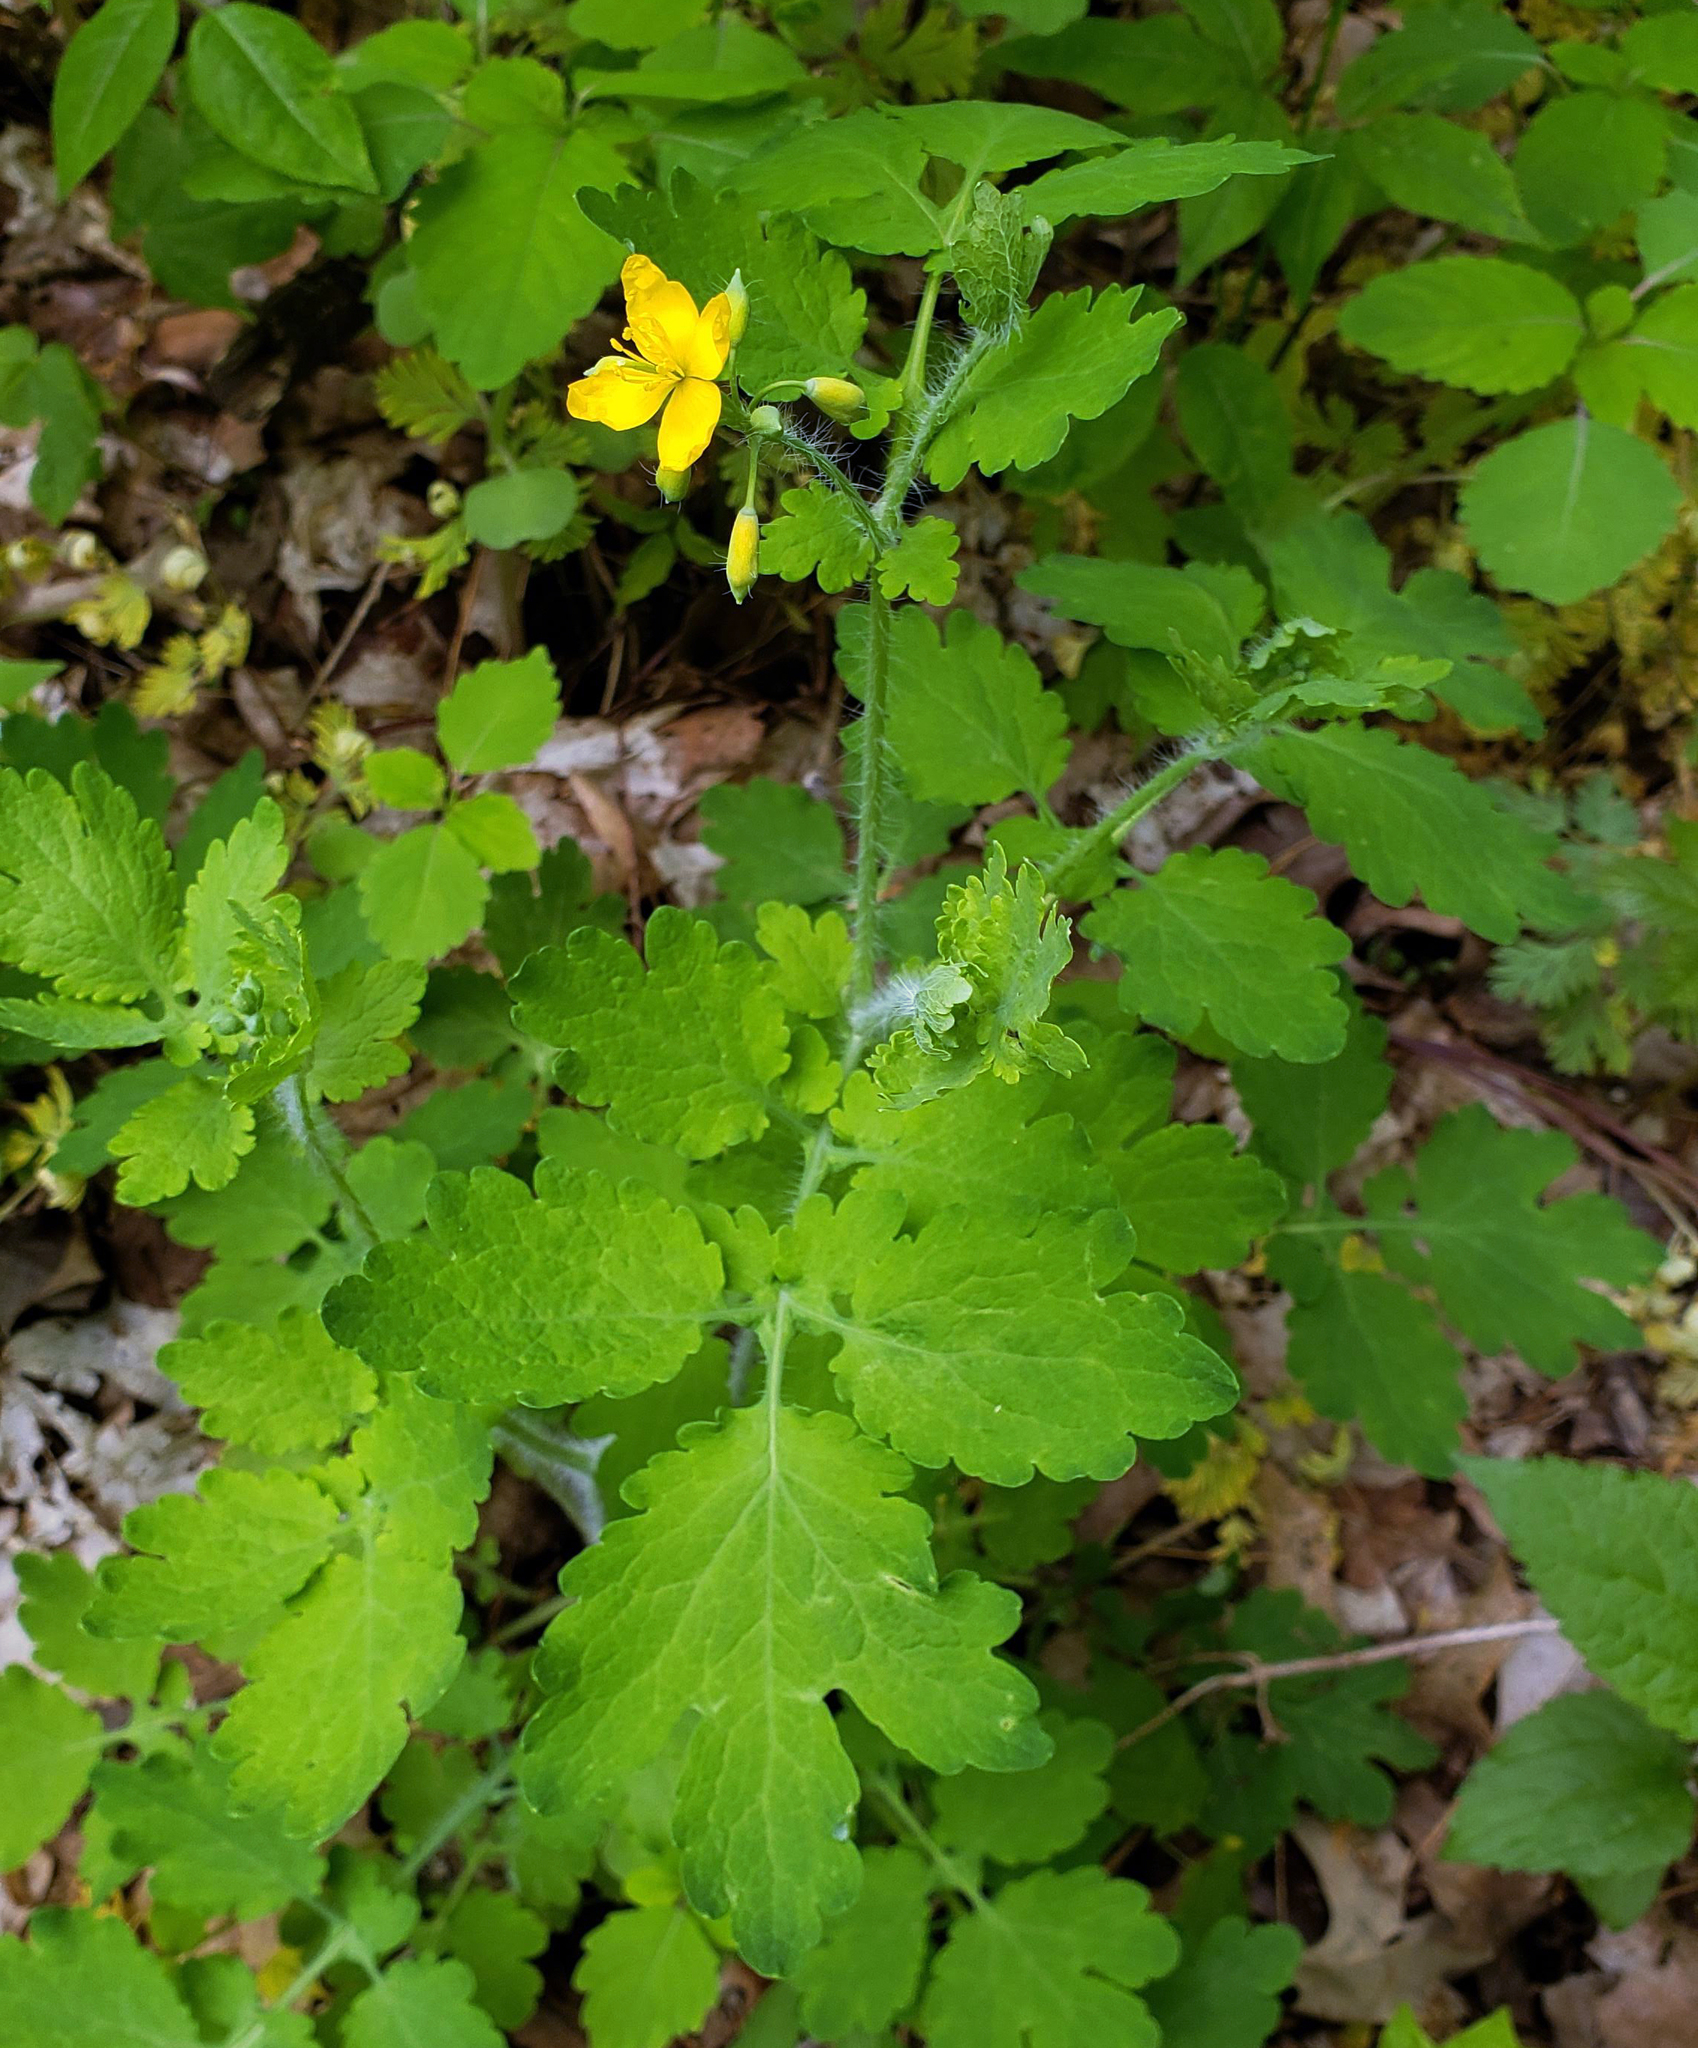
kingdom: Plantae
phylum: Tracheophyta
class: Magnoliopsida
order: Ranunculales
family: Papaveraceae
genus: Chelidonium
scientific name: Chelidonium majus
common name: Greater celandine
